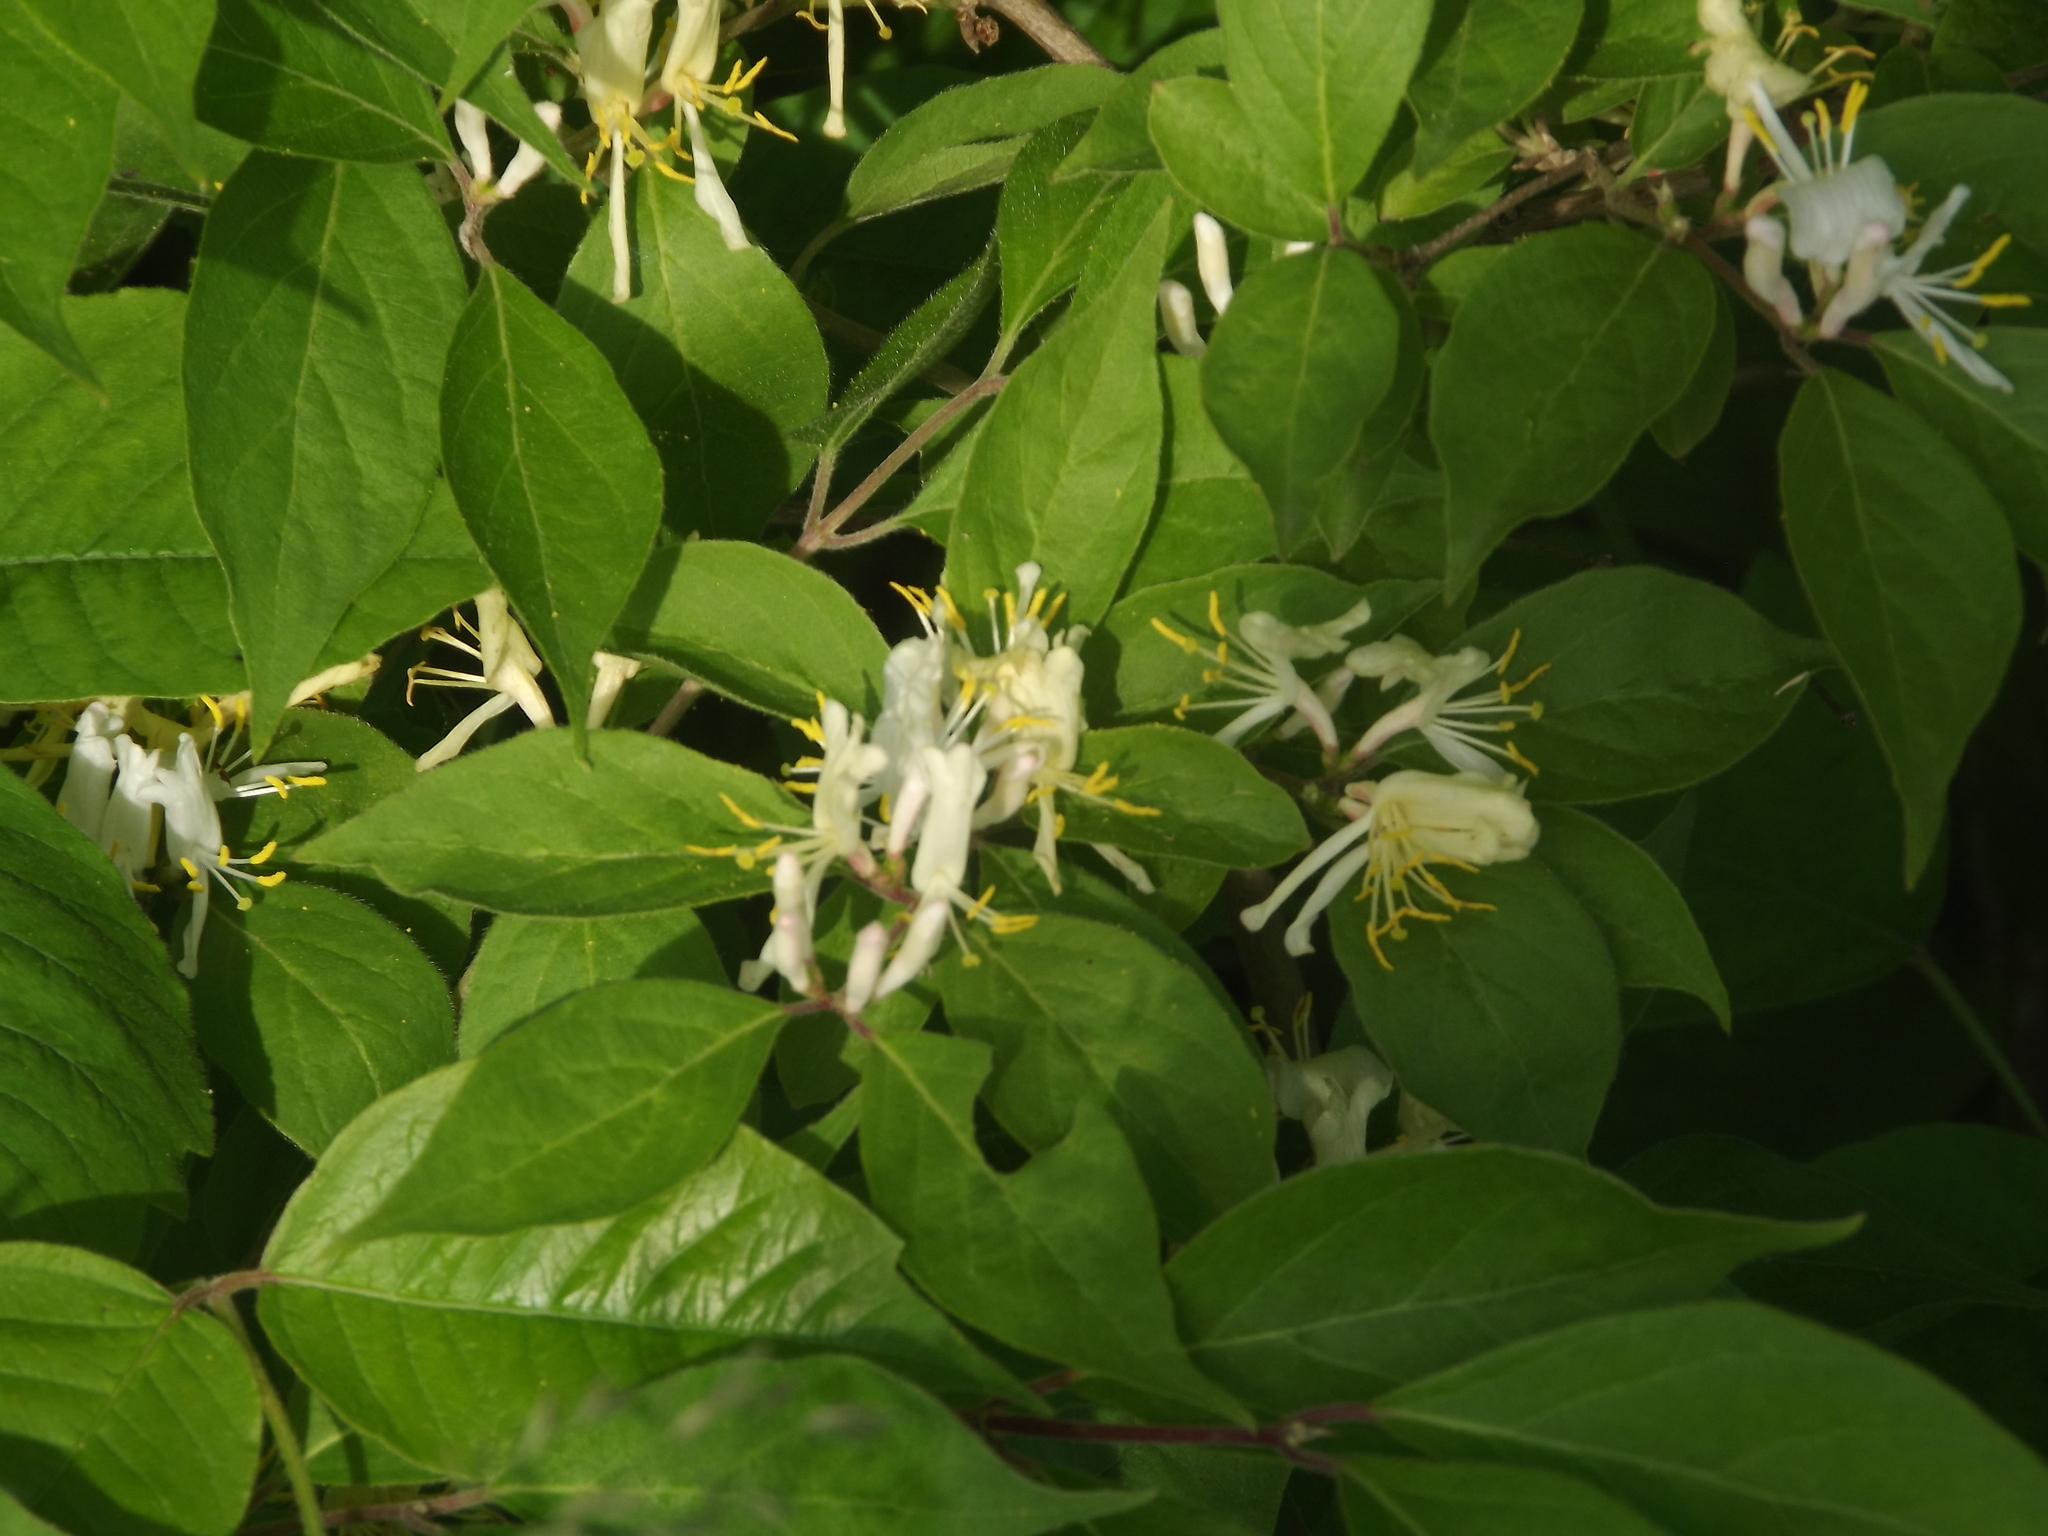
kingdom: Plantae
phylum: Tracheophyta
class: Magnoliopsida
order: Dipsacales
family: Caprifoliaceae
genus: Lonicera
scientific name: Lonicera maackii
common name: Amur honeysuckle
